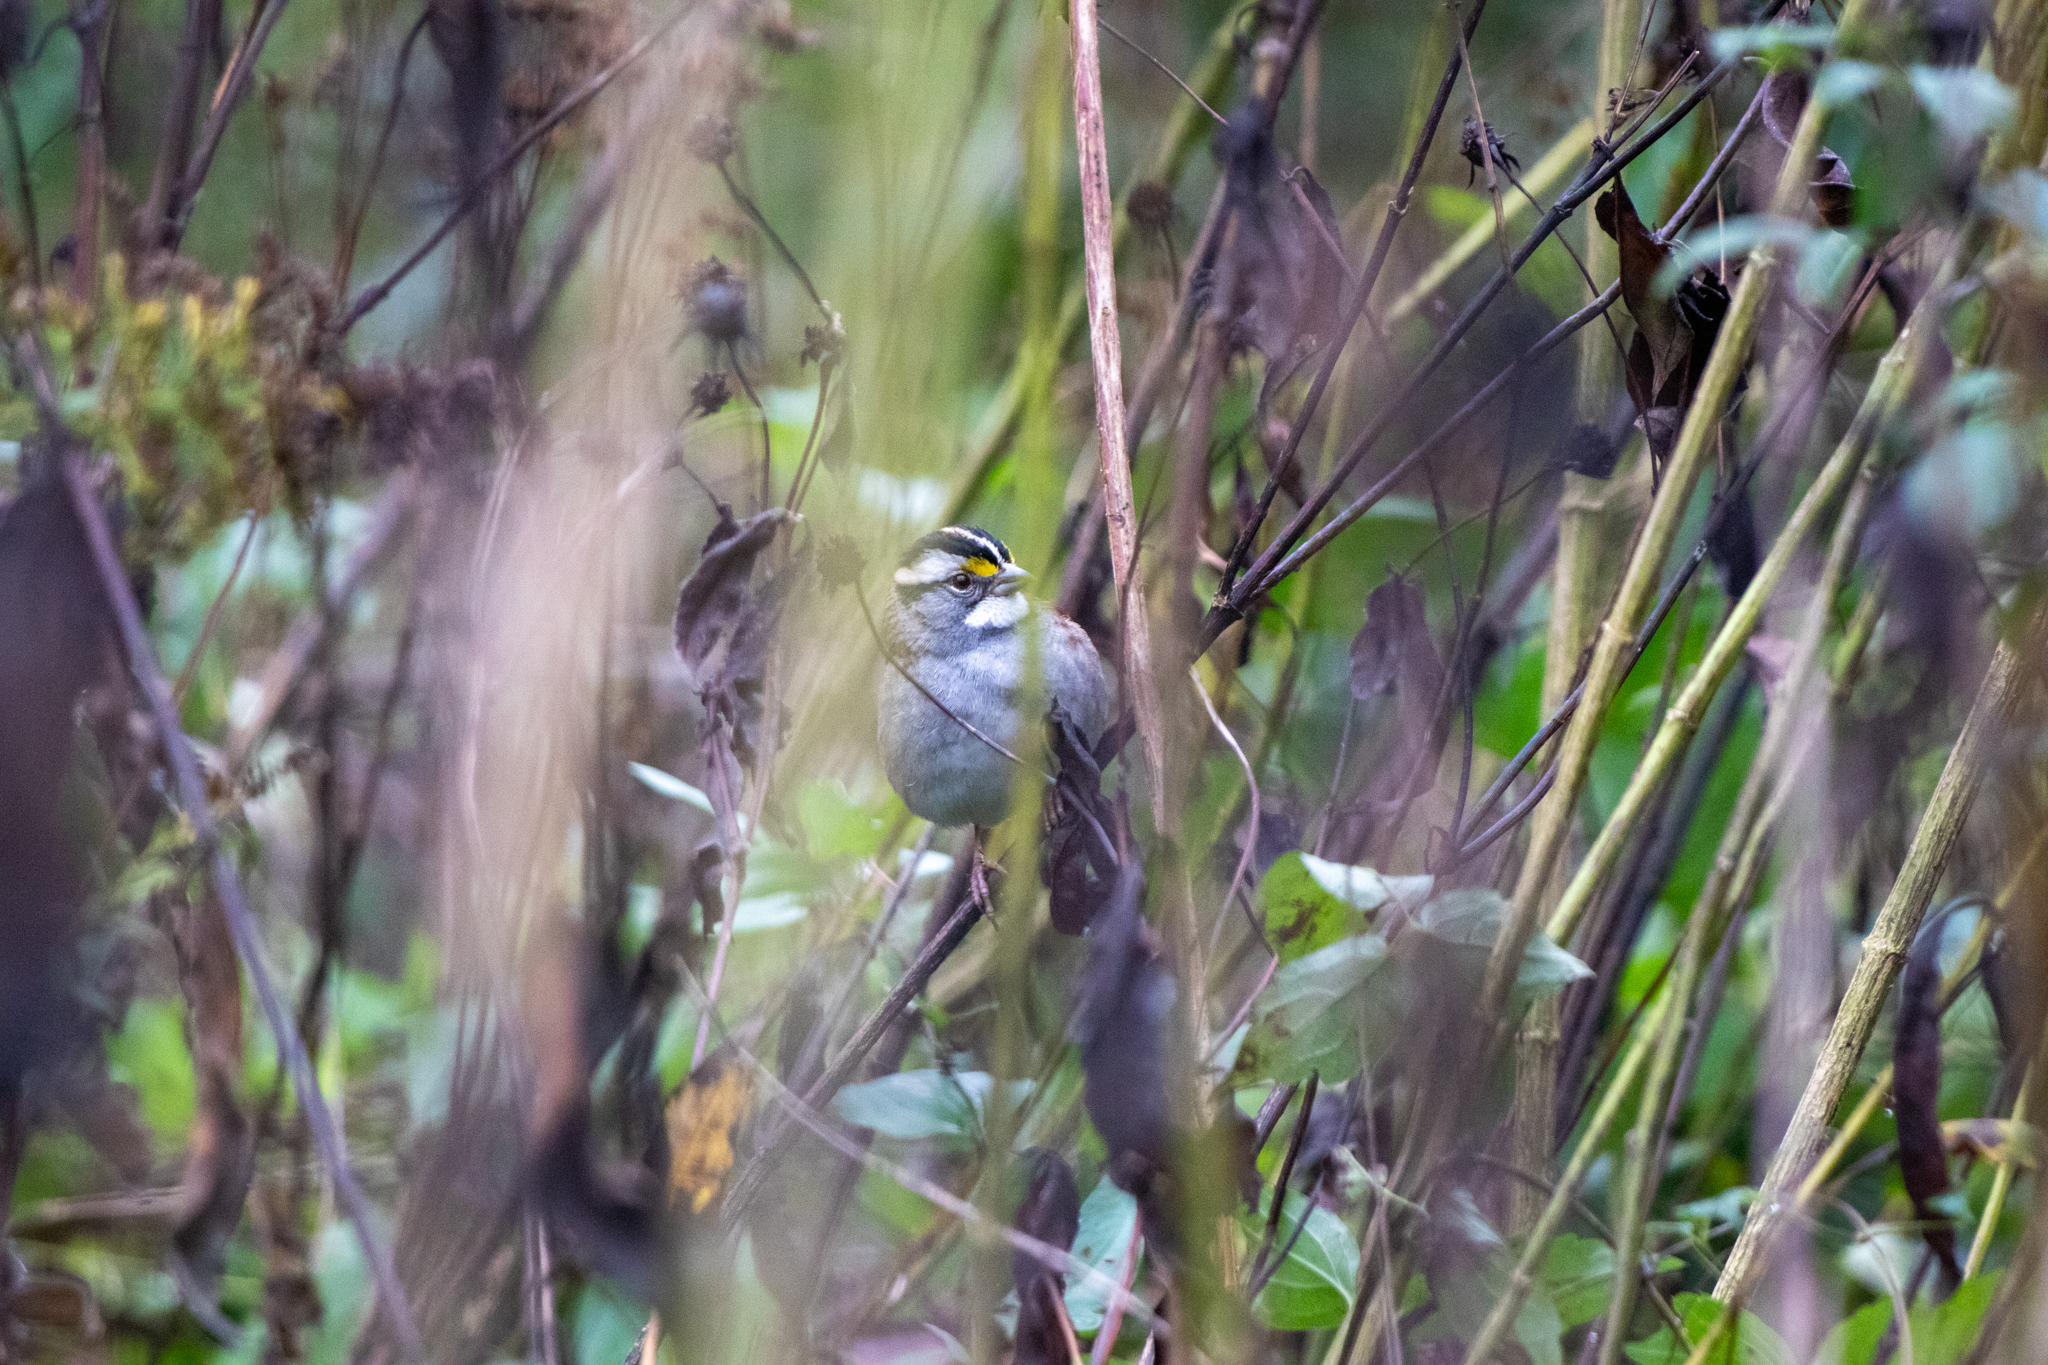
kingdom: Animalia
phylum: Chordata
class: Aves
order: Passeriformes
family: Passerellidae
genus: Zonotrichia
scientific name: Zonotrichia albicollis
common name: White-throated sparrow
